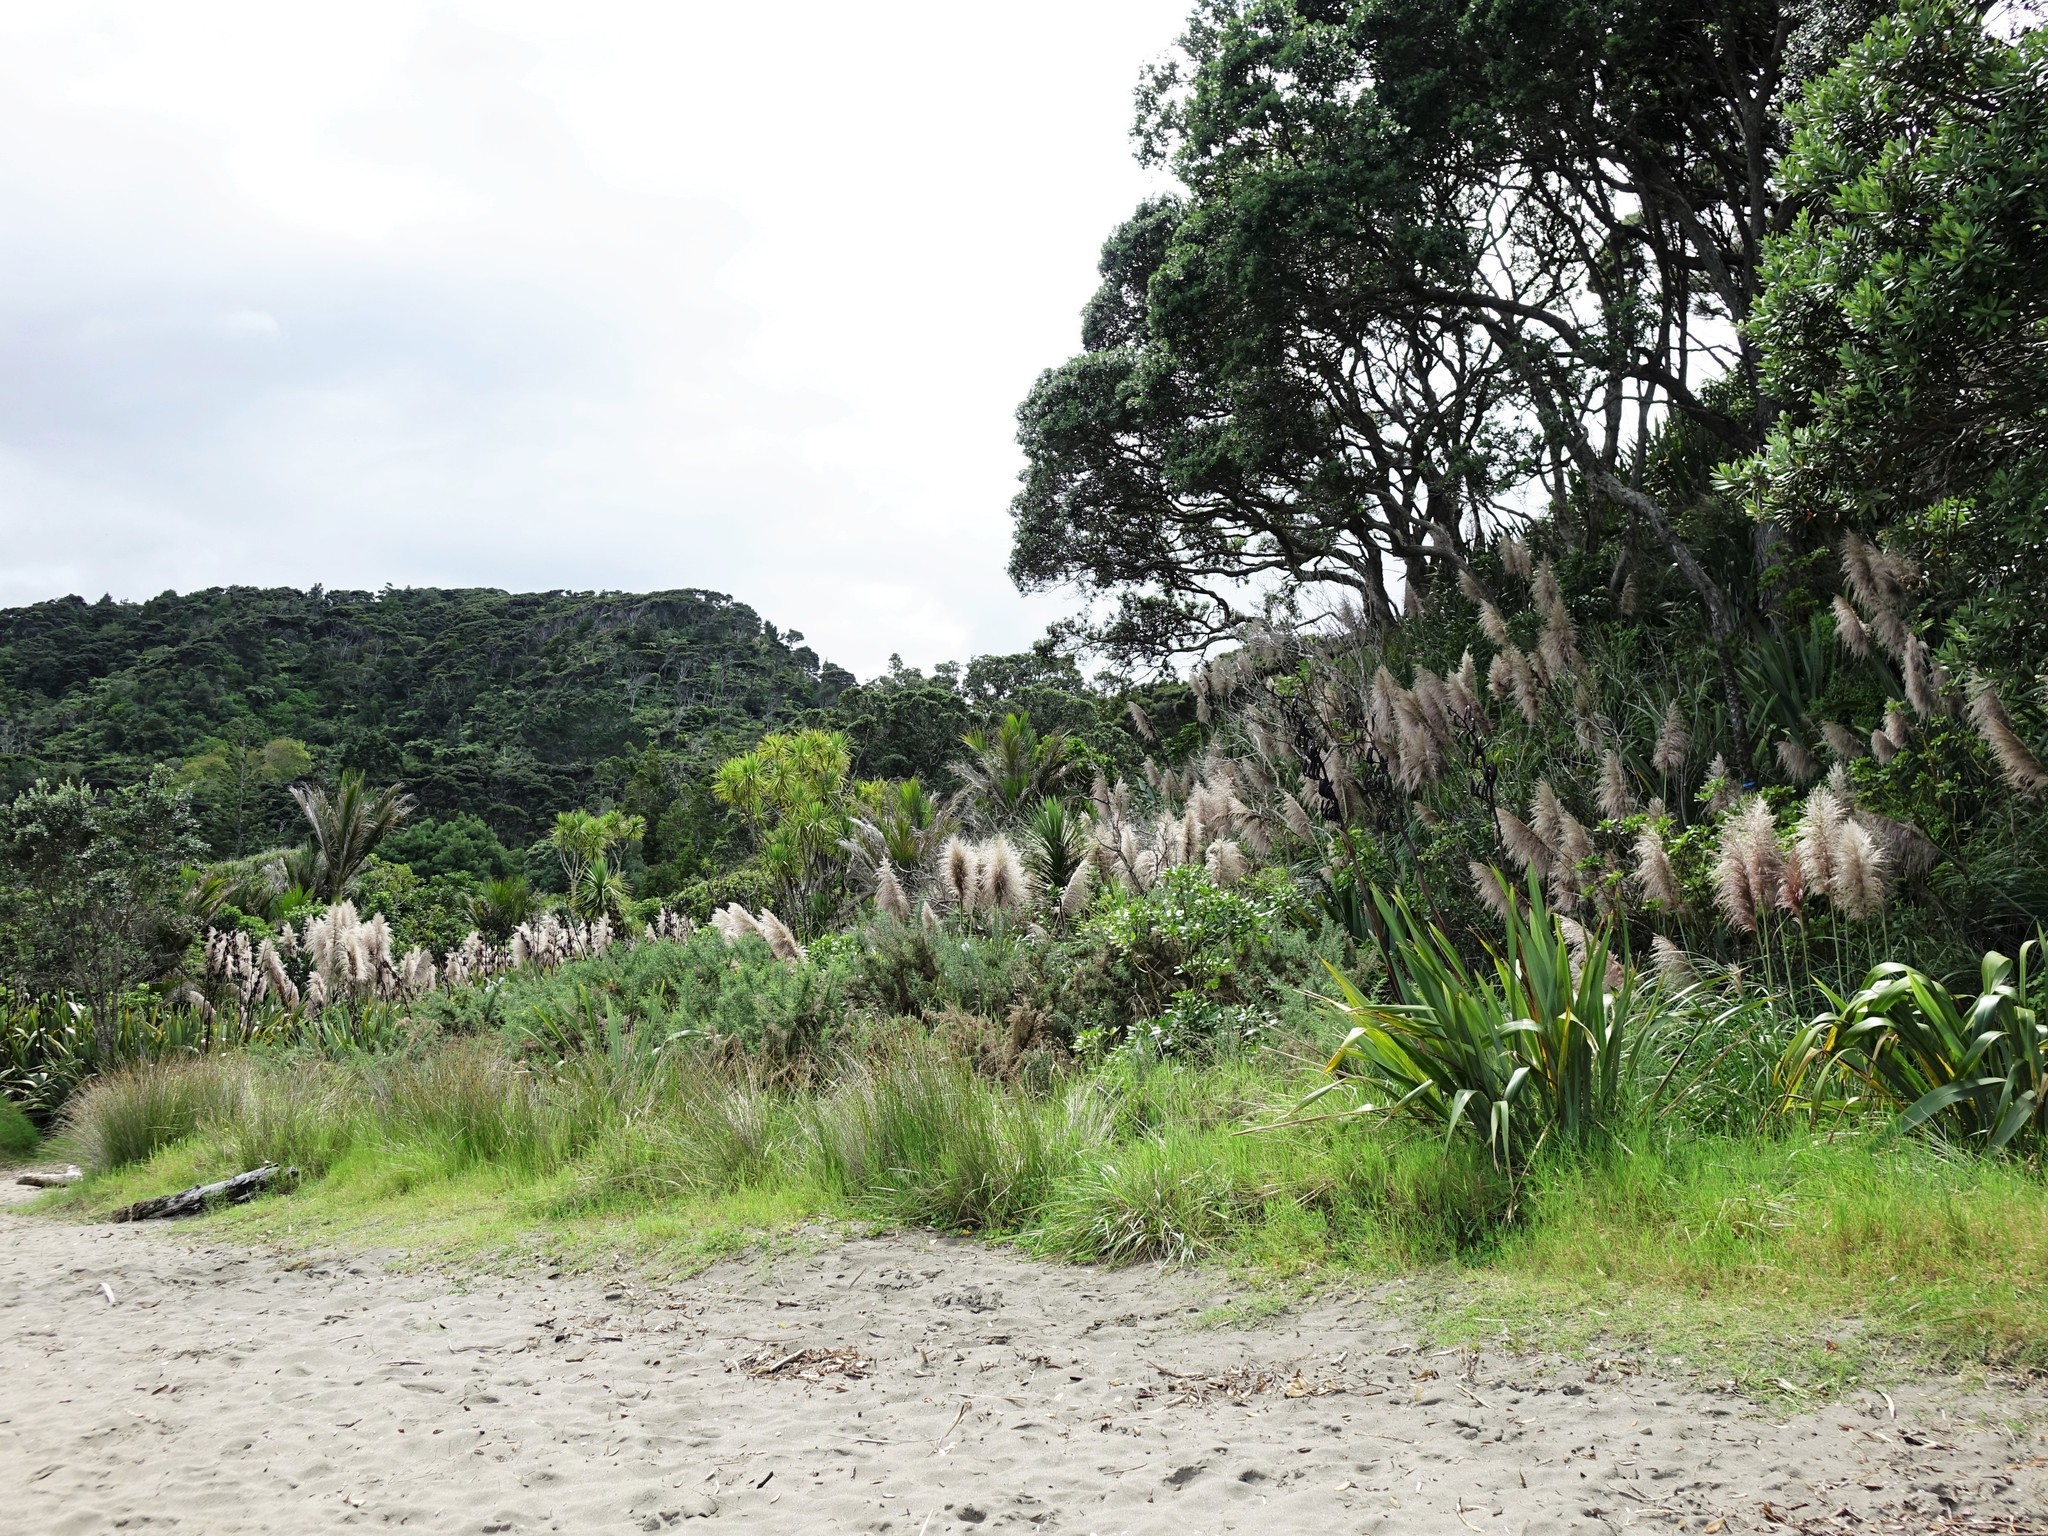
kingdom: Plantae
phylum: Tracheophyta
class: Liliopsida
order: Poales
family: Poaceae
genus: Cortaderia
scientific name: Cortaderia selloana
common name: Uruguayan pampas grass
